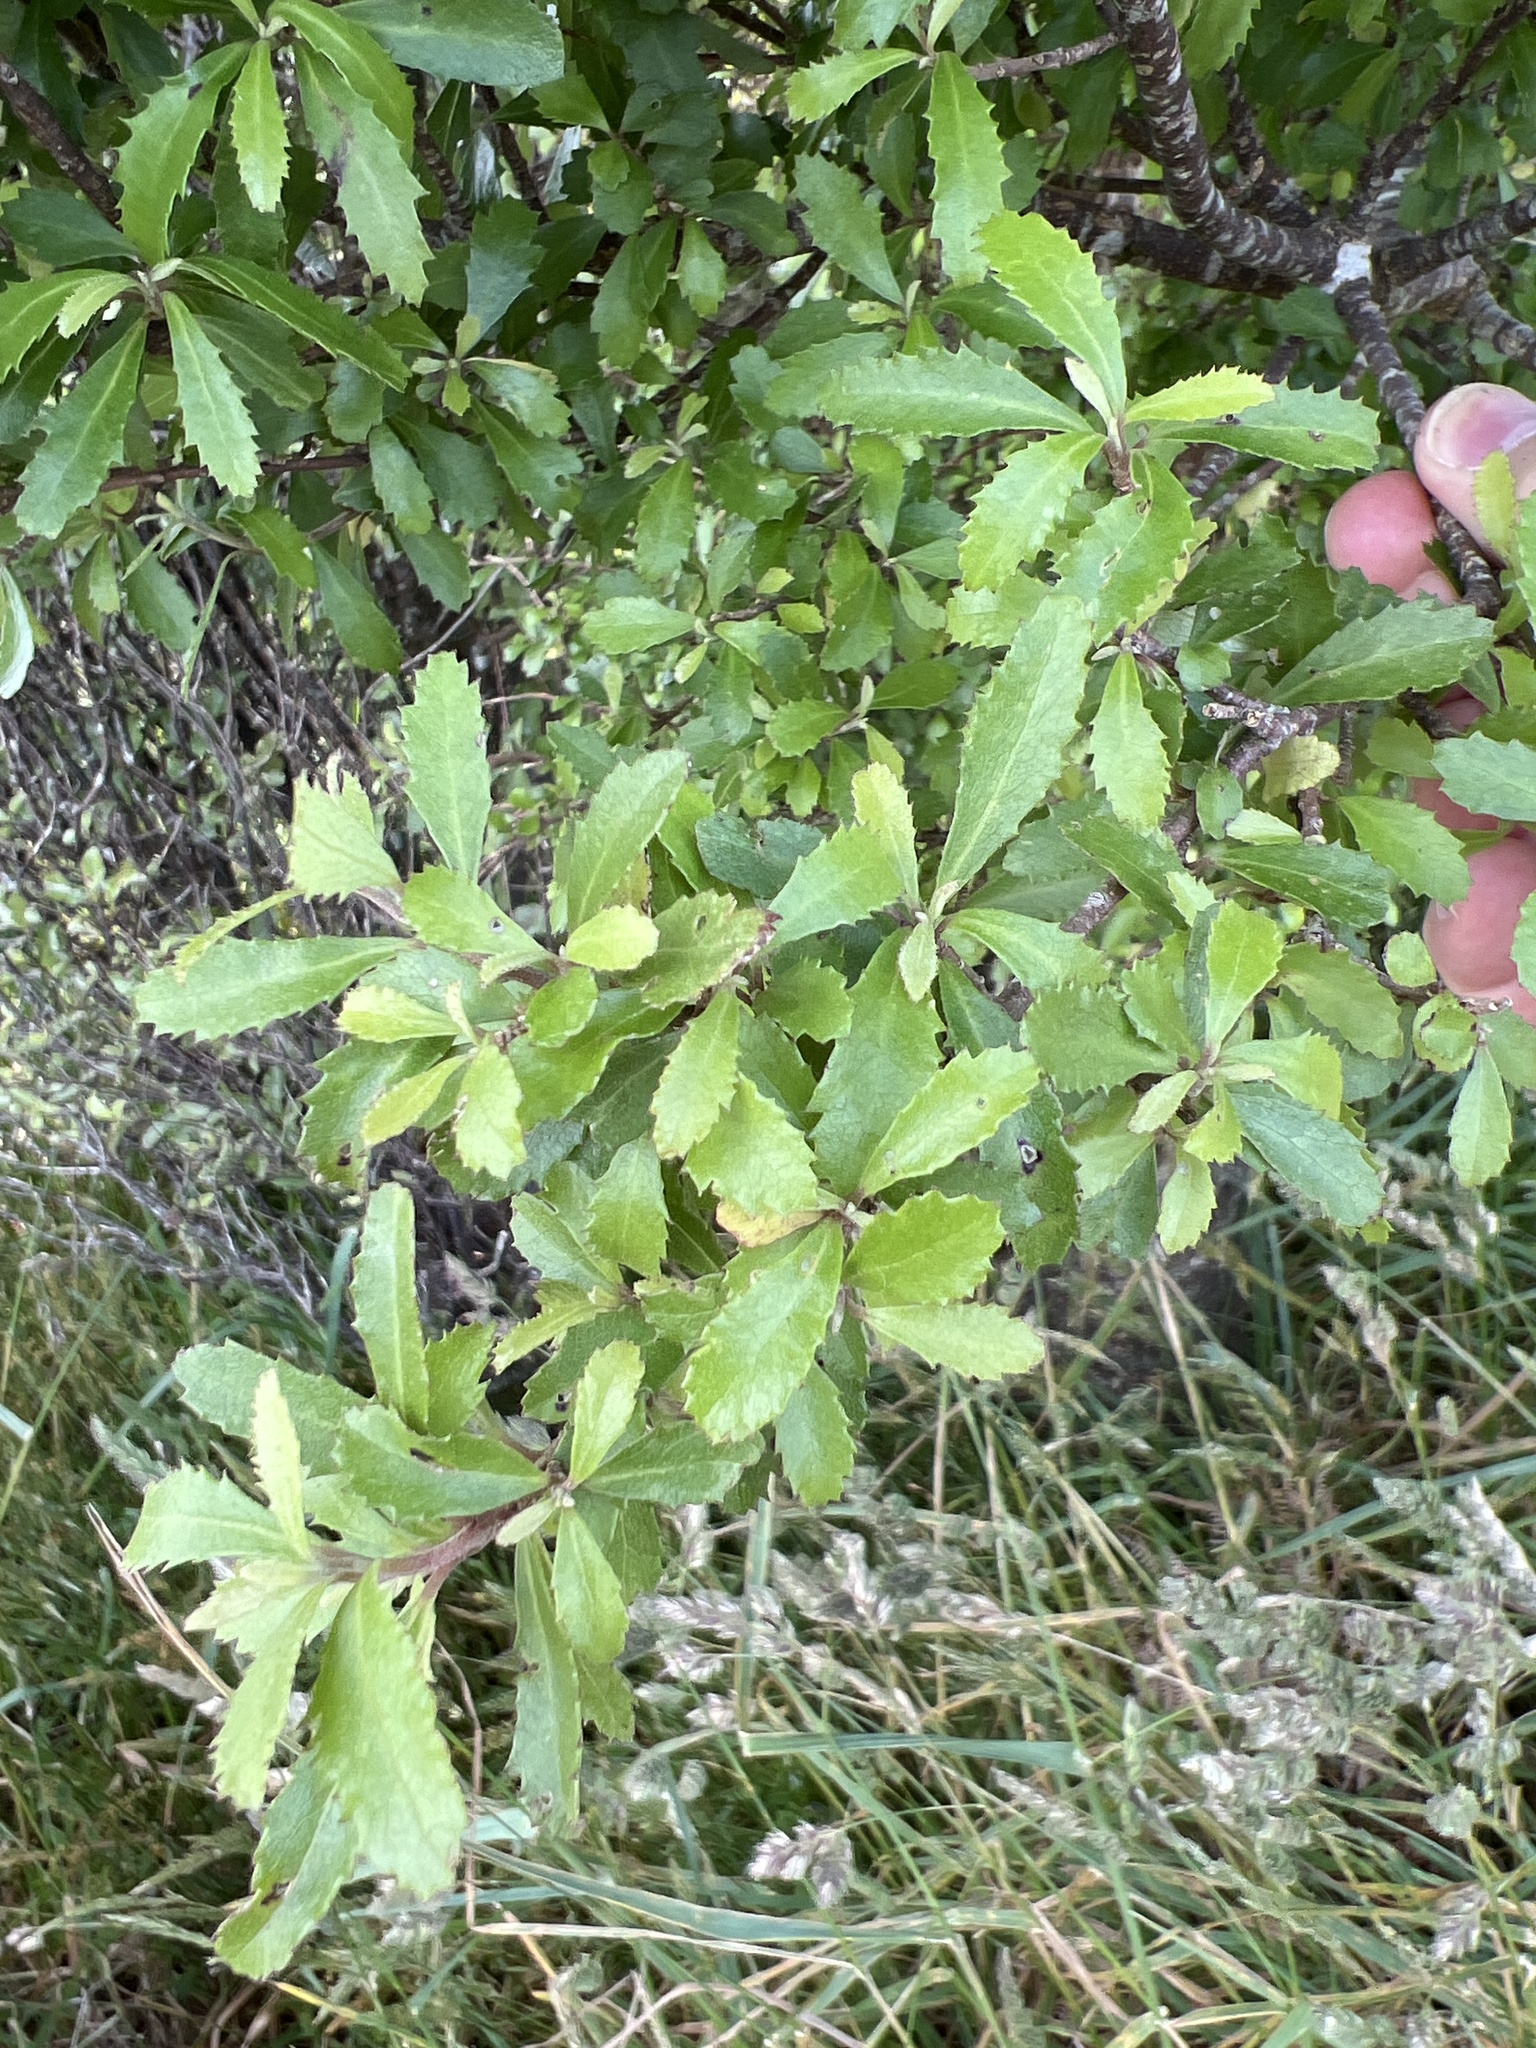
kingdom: Plantae
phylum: Tracheophyta
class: Magnoliopsida
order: Malvales
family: Malvaceae
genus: Hoheria
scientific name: Hoheria angustifolia
